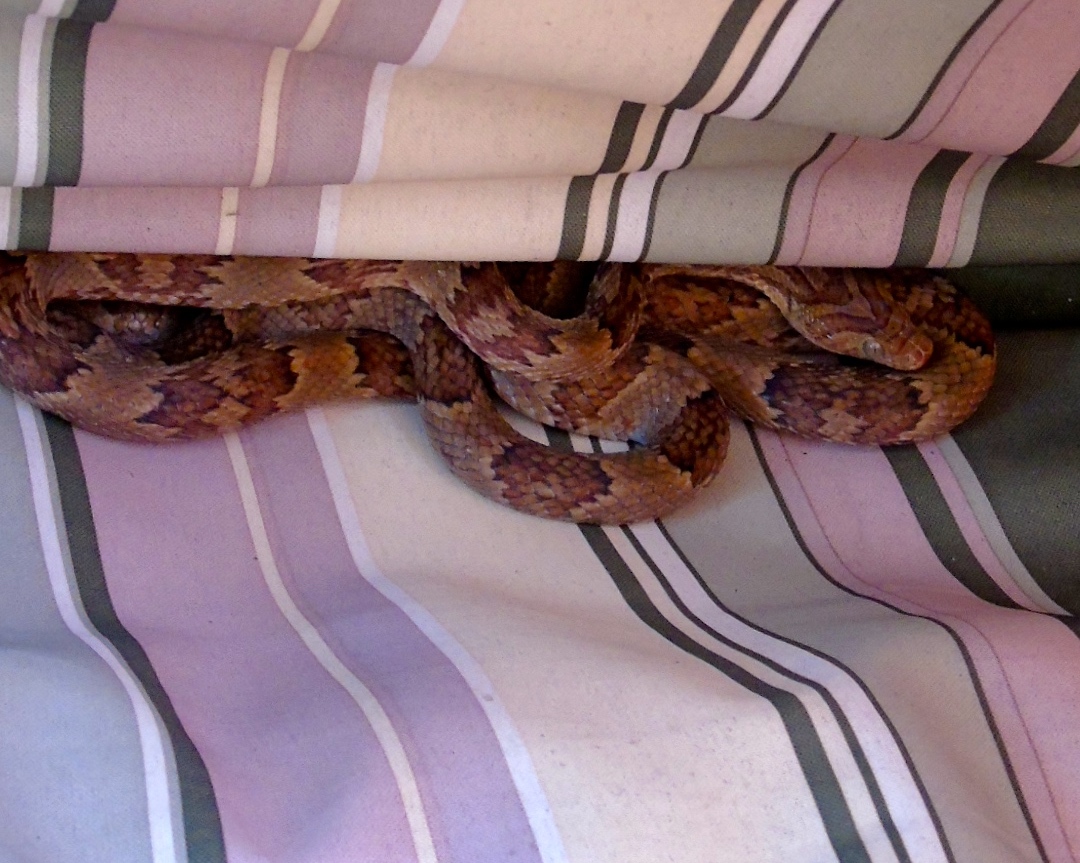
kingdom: Animalia
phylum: Chordata
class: Squamata
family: Colubridae
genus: Trimorphodon
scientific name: Trimorphodon paucimaculatus
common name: Sinaloan lyresnake
